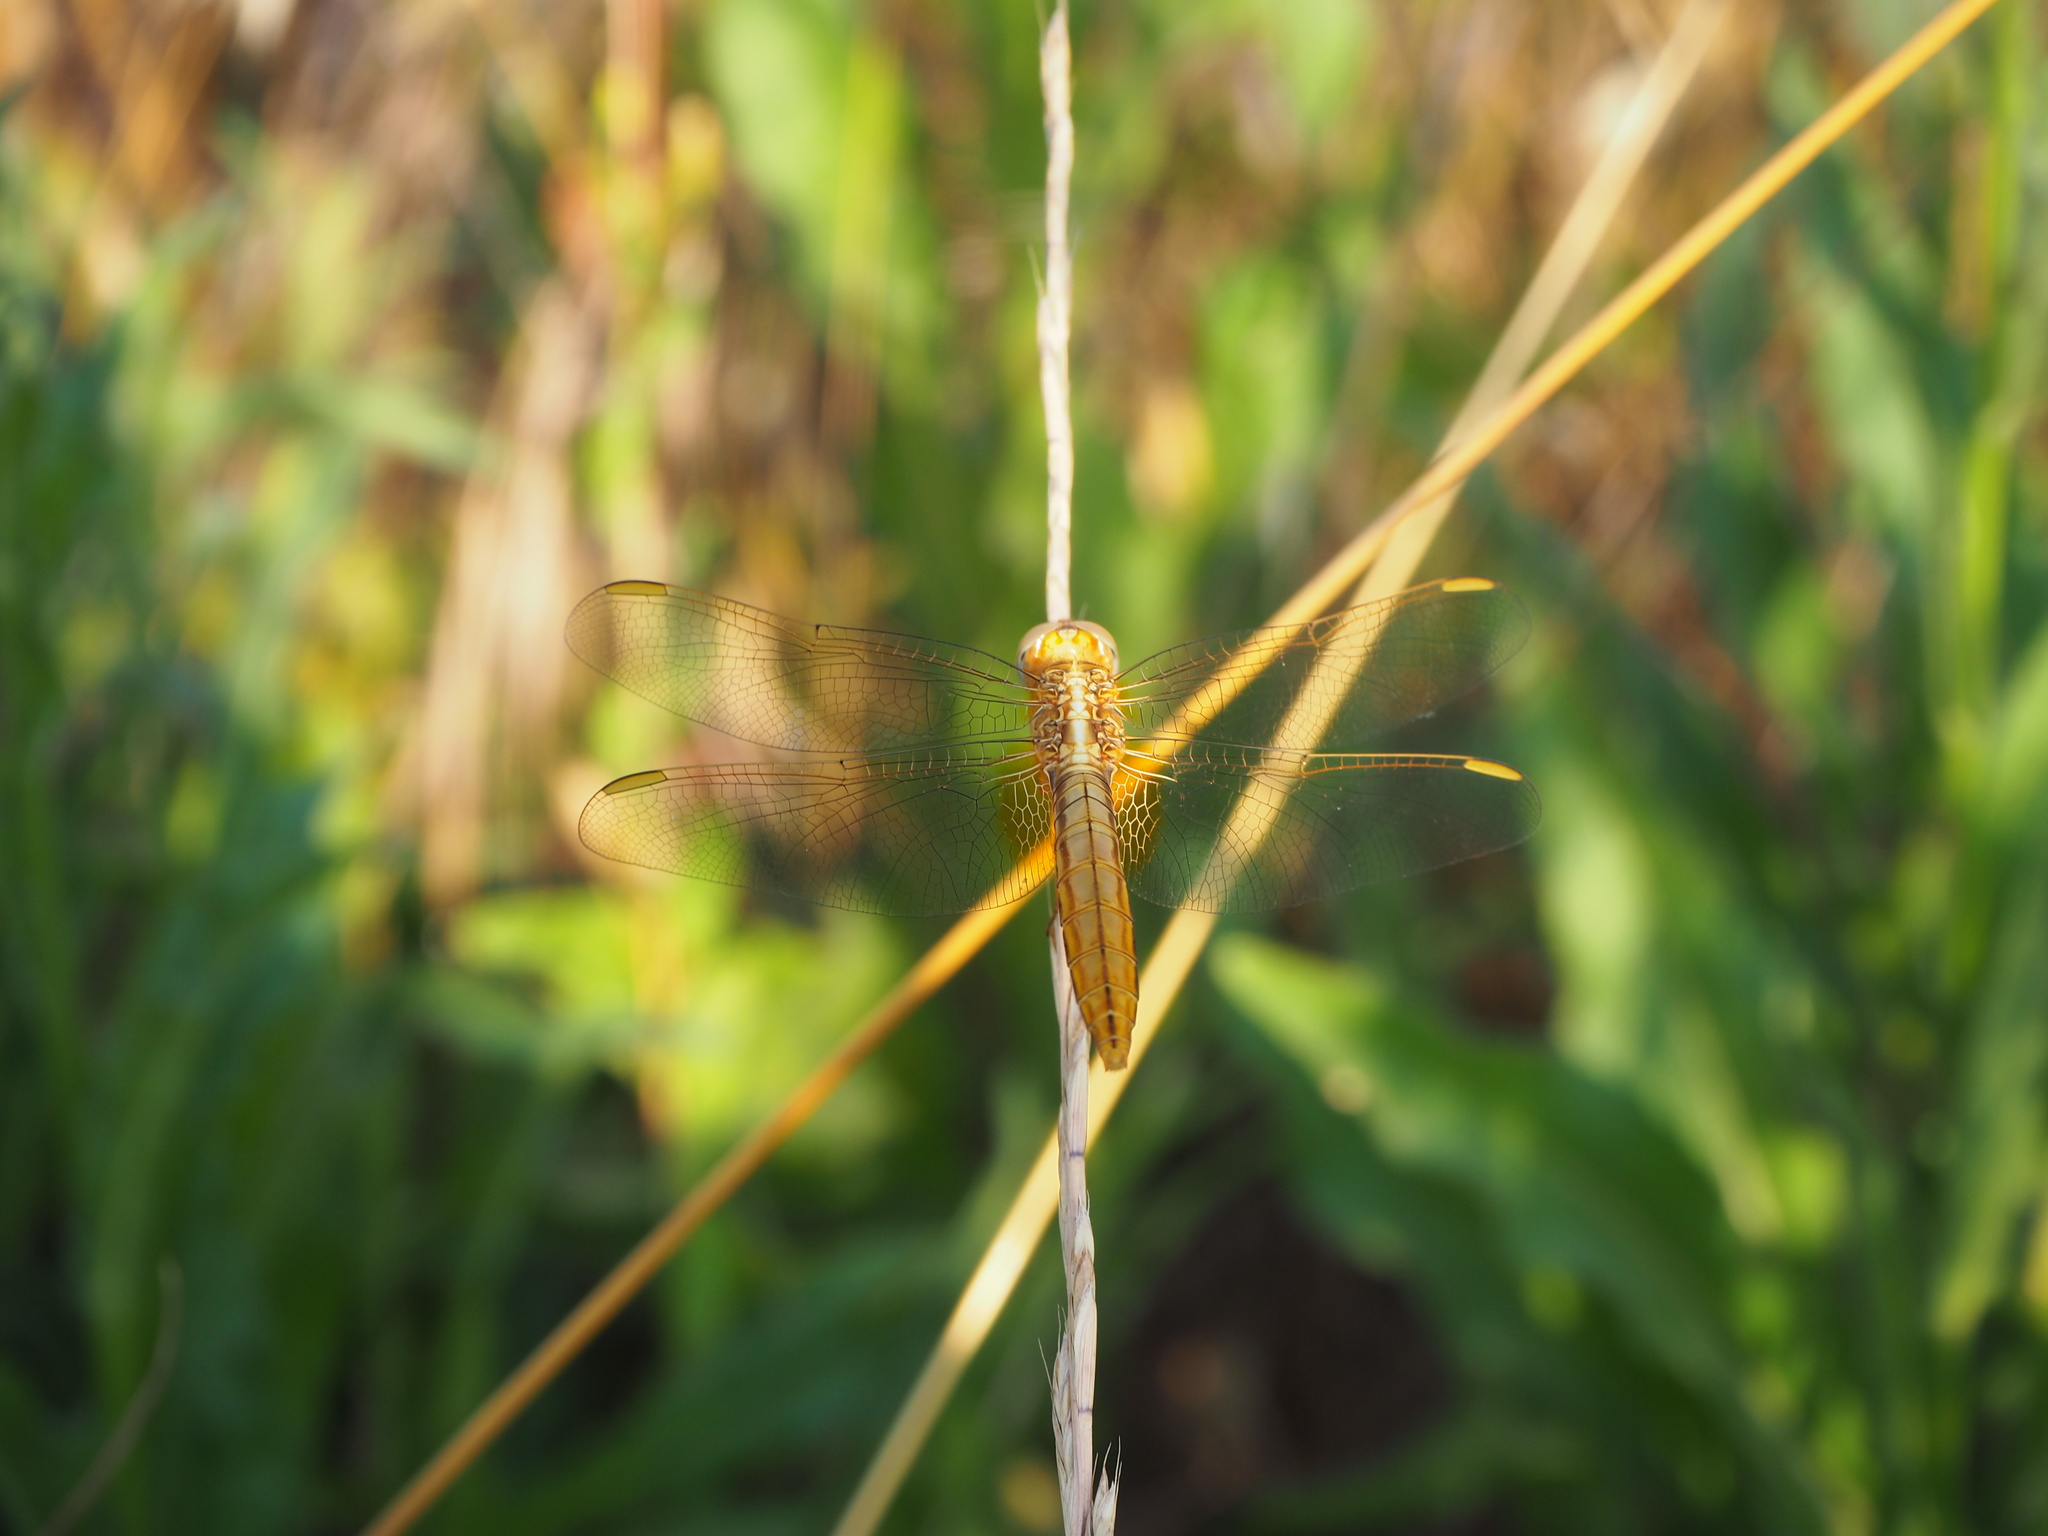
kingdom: Animalia
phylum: Arthropoda
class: Insecta
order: Odonata
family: Libellulidae
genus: Crocothemis
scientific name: Crocothemis erythraea
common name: Scarlet dragonfly
